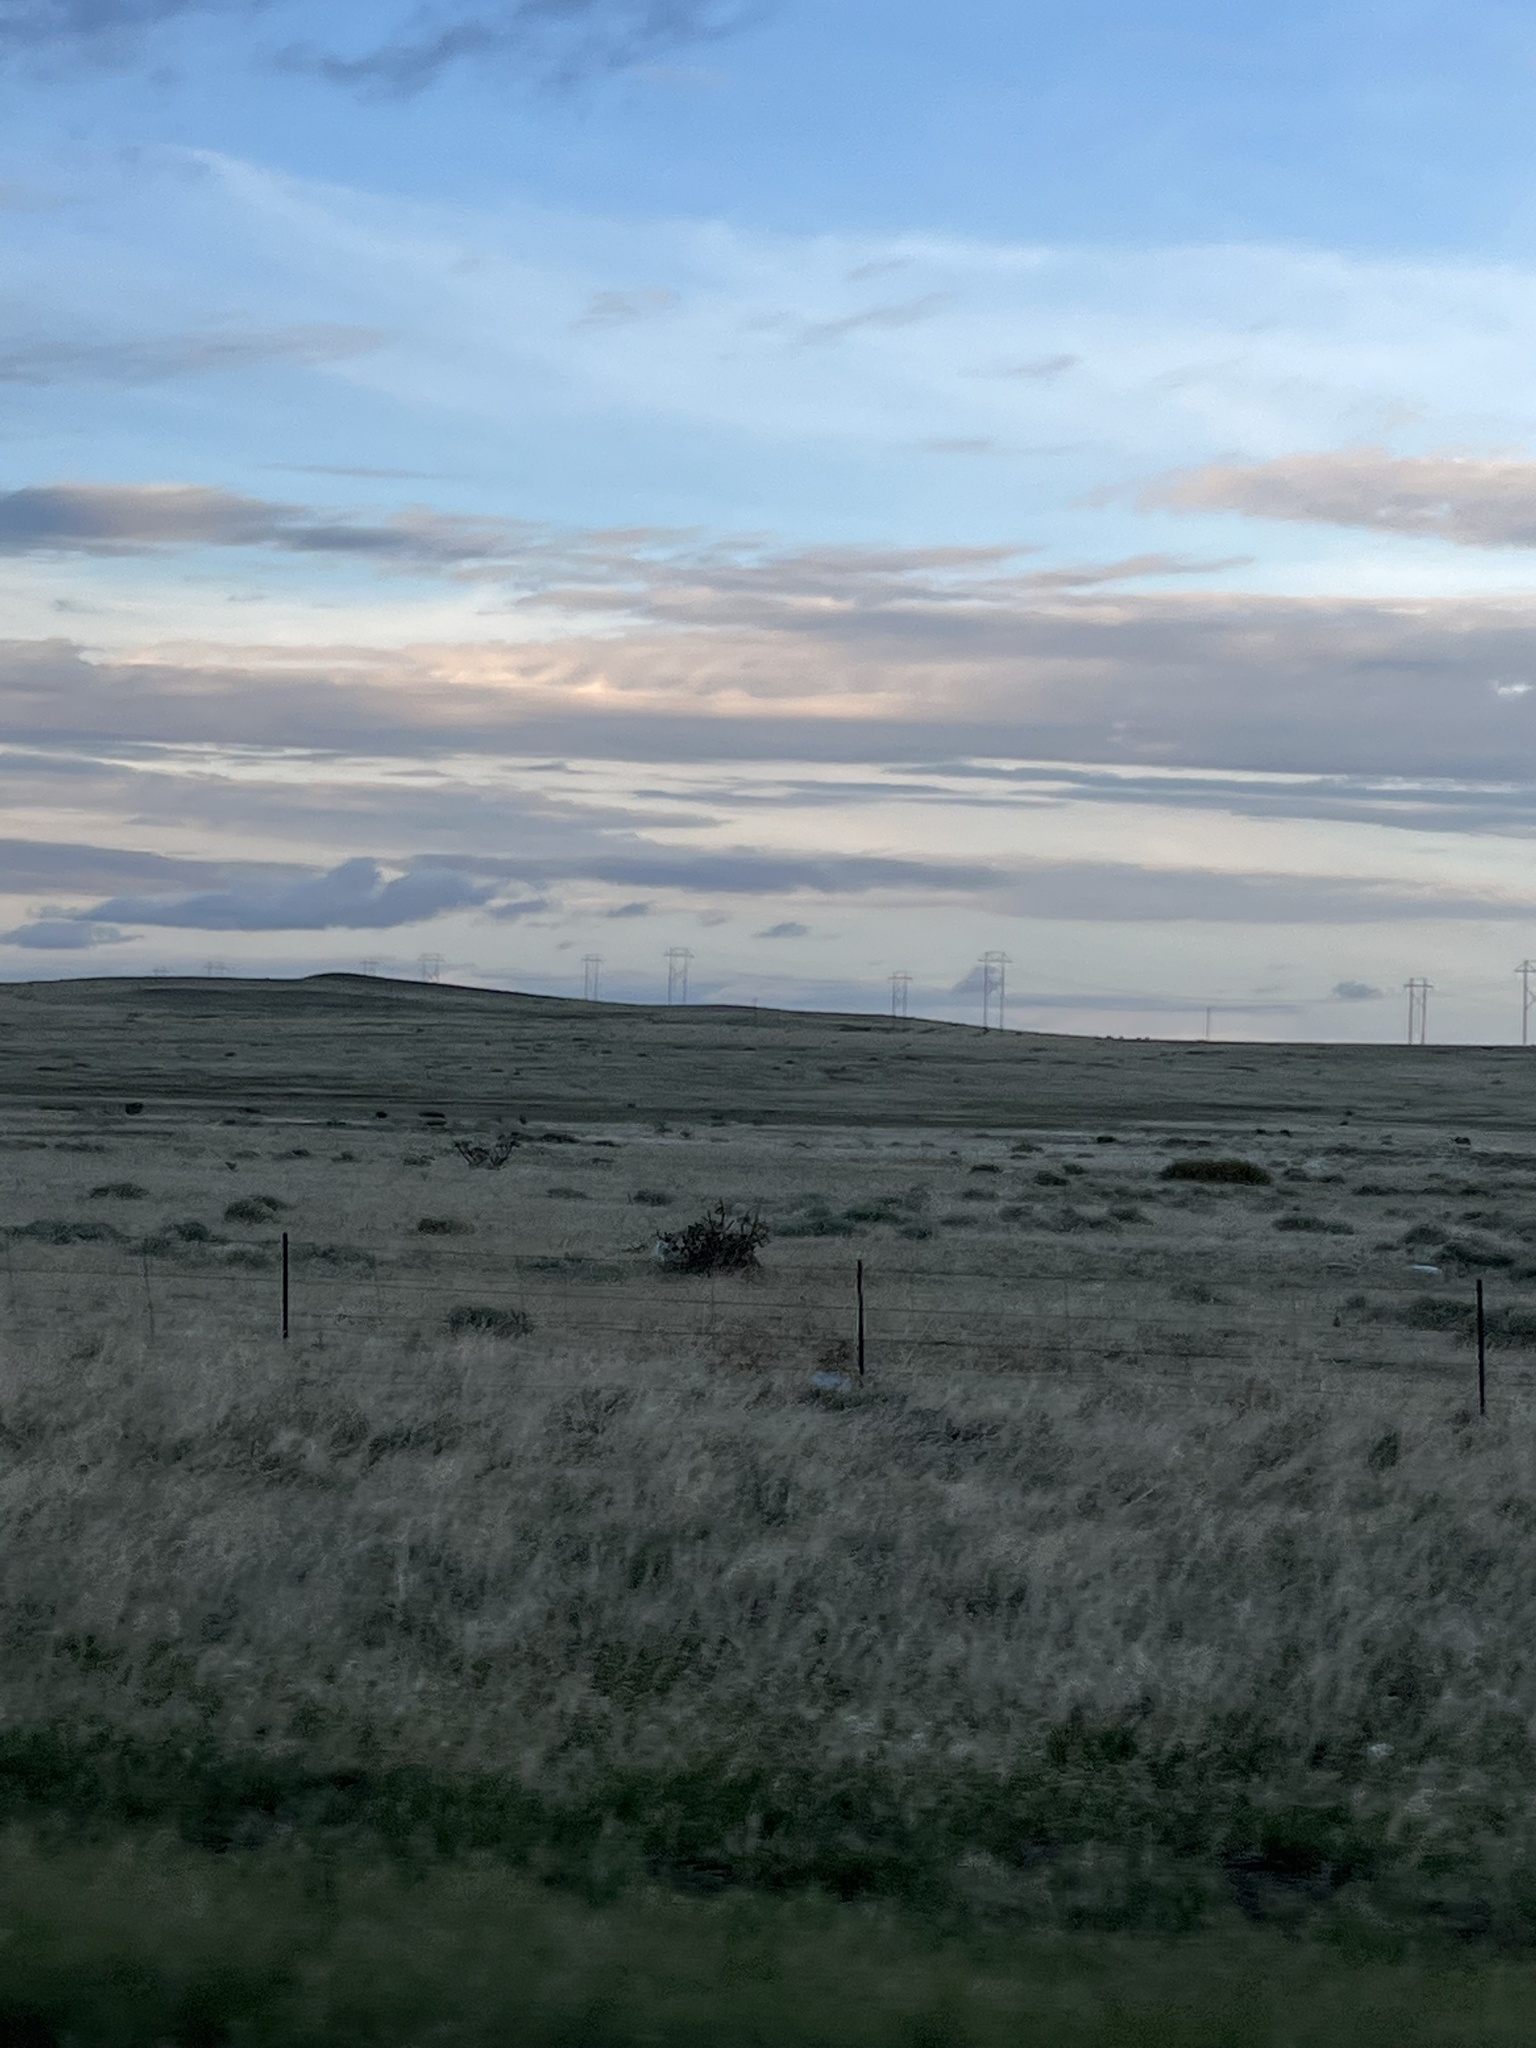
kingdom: Plantae
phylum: Tracheophyta
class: Magnoliopsida
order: Caryophyllales
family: Cactaceae
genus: Cylindropuntia
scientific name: Cylindropuntia imbricata
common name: Candelabrum cactus
